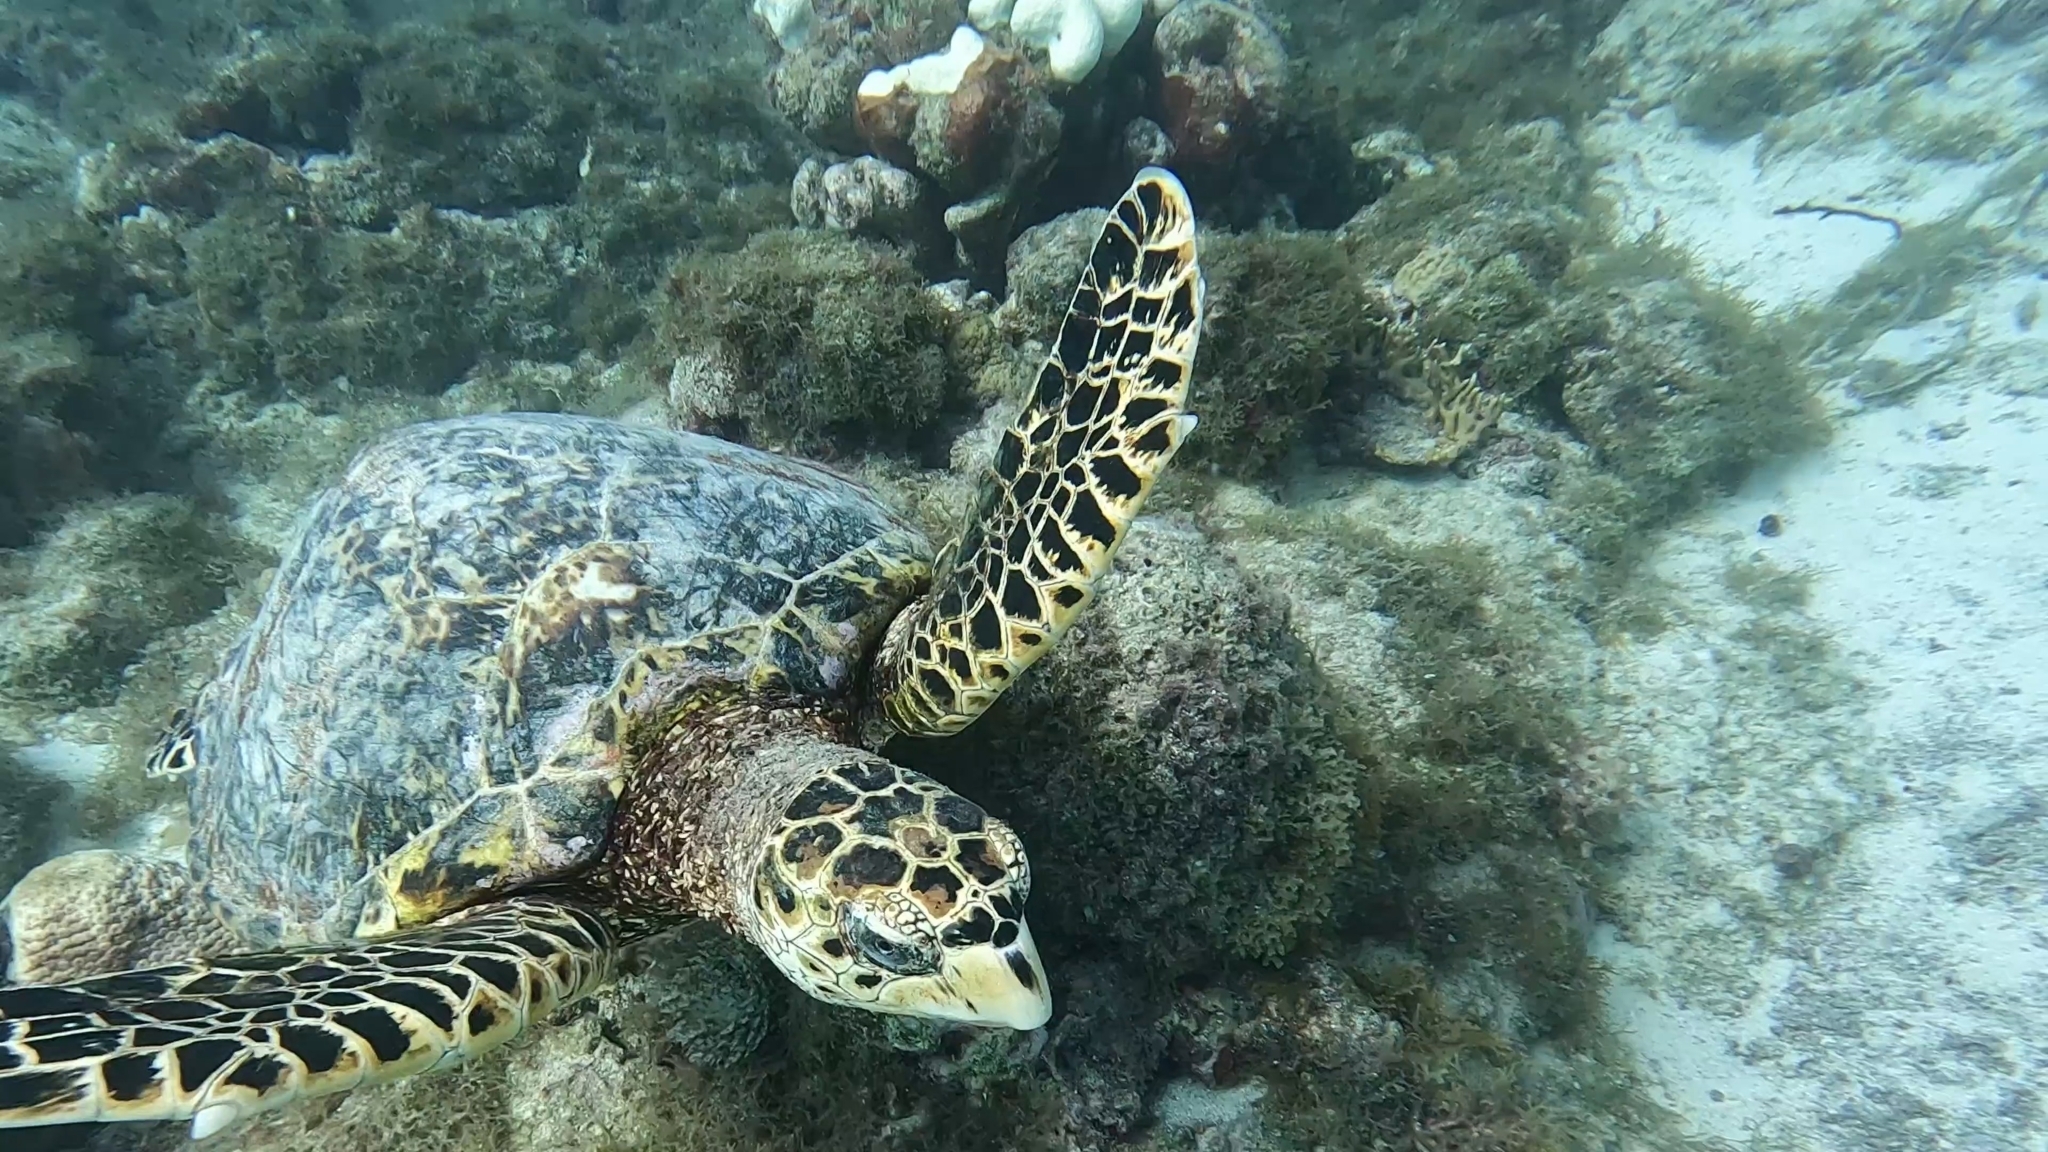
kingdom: Animalia
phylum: Chordata
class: Testudines
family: Cheloniidae
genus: Eretmochelys
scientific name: Eretmochelys imbricata
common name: Hawksbill turtle
